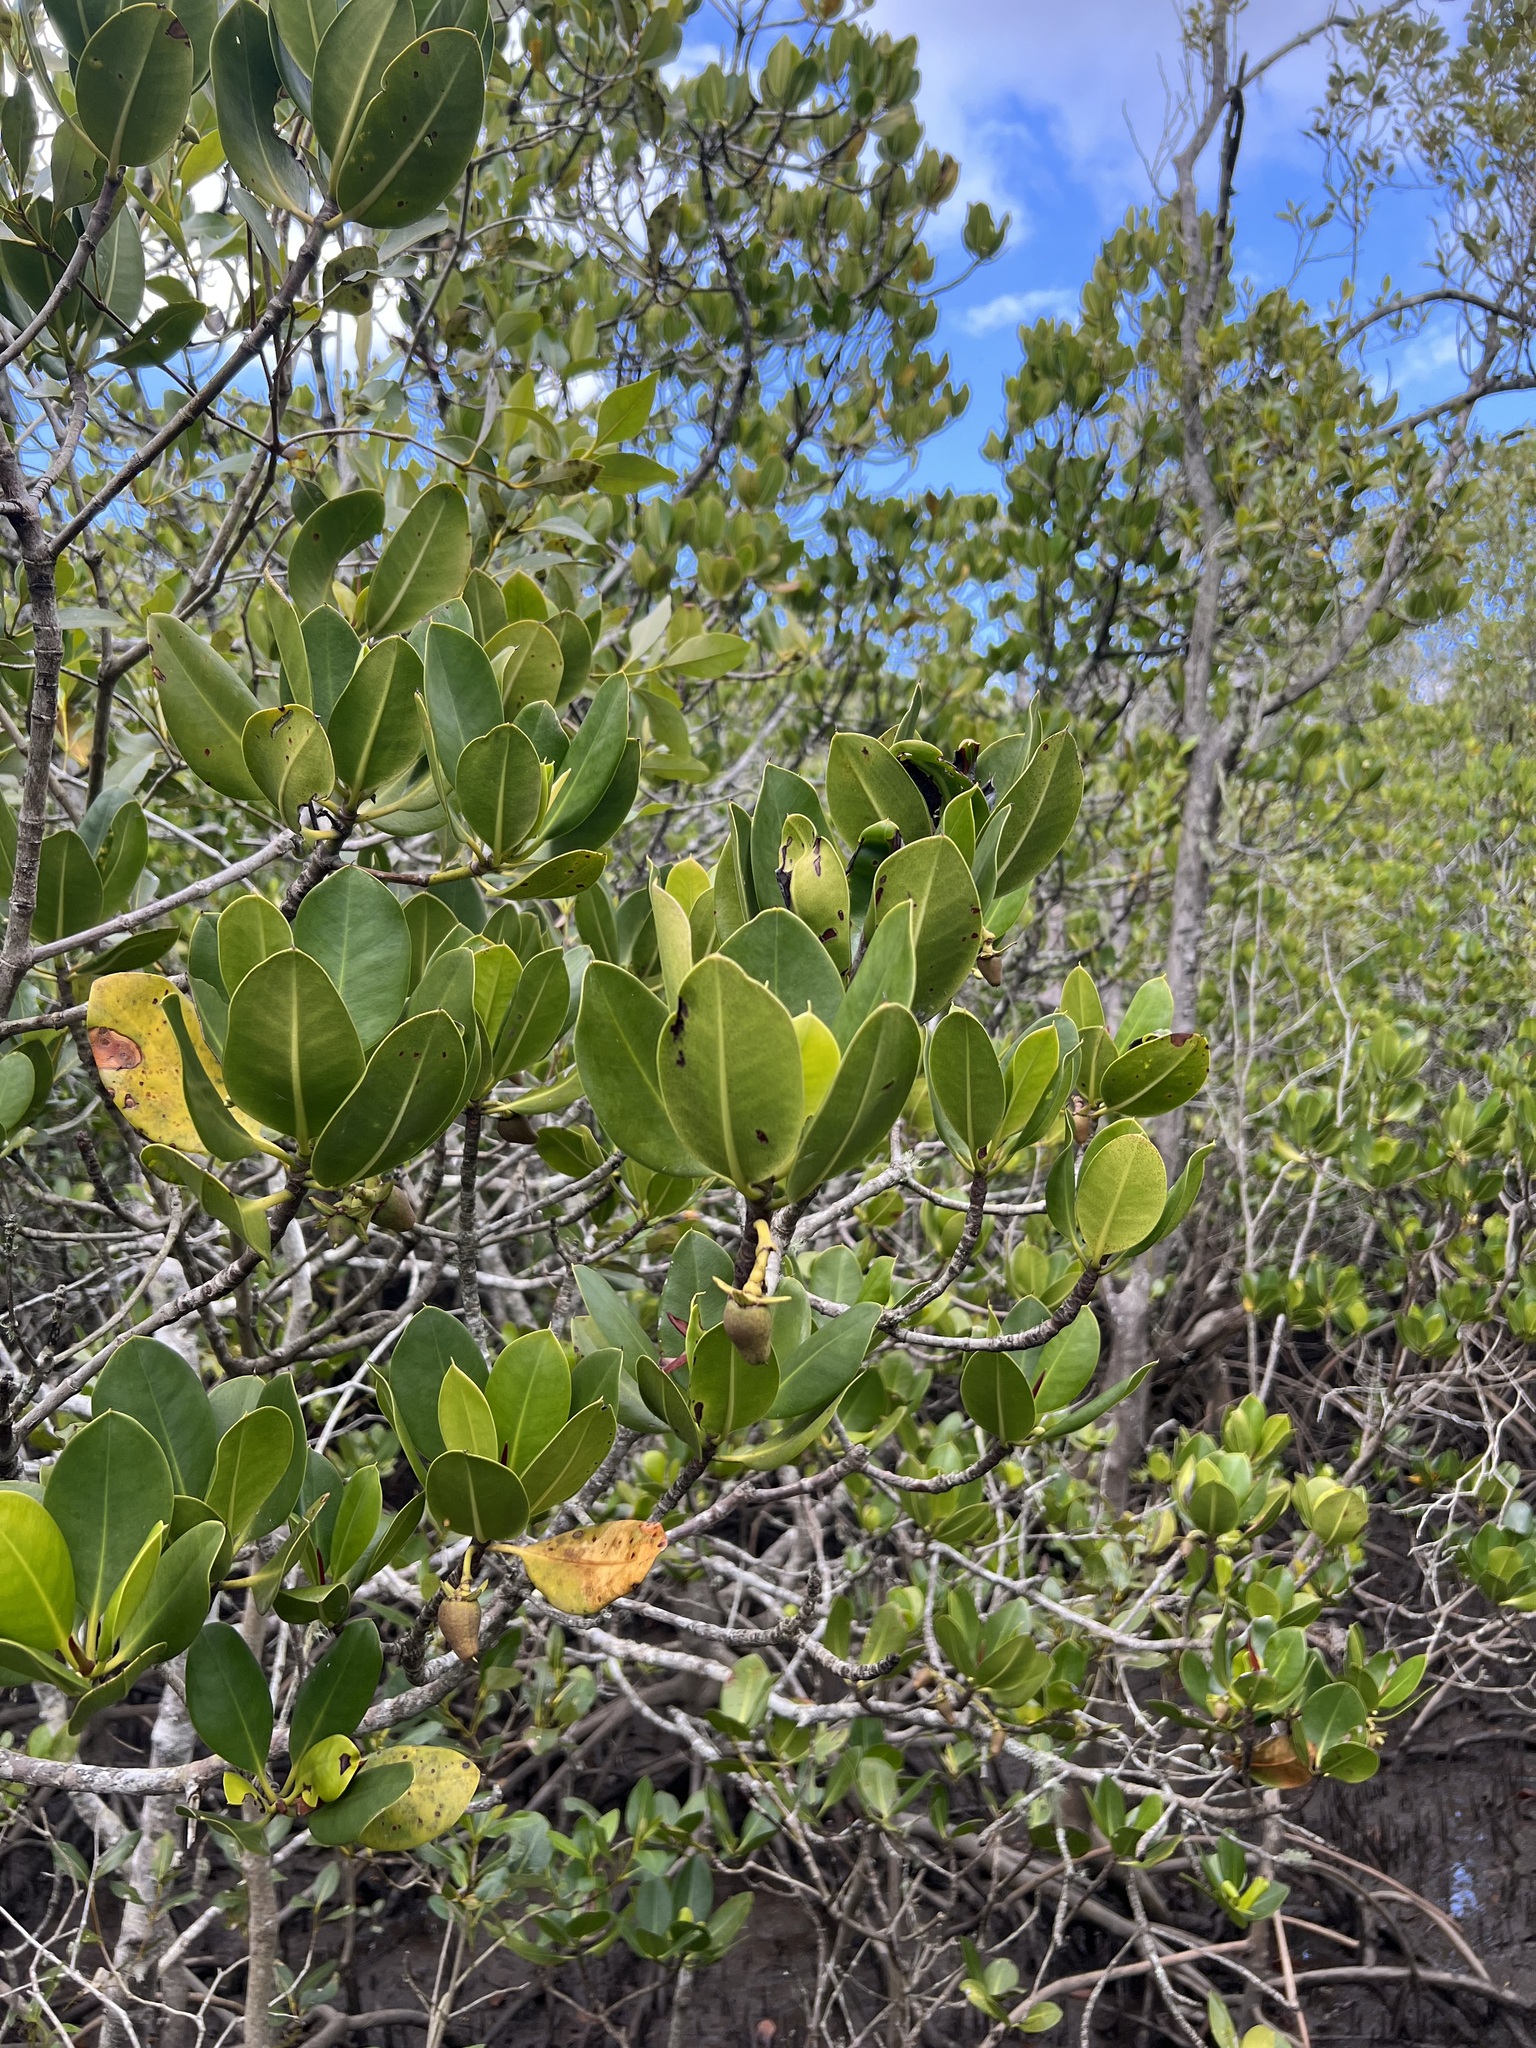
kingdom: Plantae
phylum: Tracheophyta
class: Magnoliopsida
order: Malpighiales
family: Rhizophoraceae
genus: Rhizophora
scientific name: Rhizophora stylosa
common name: Red mangrove
